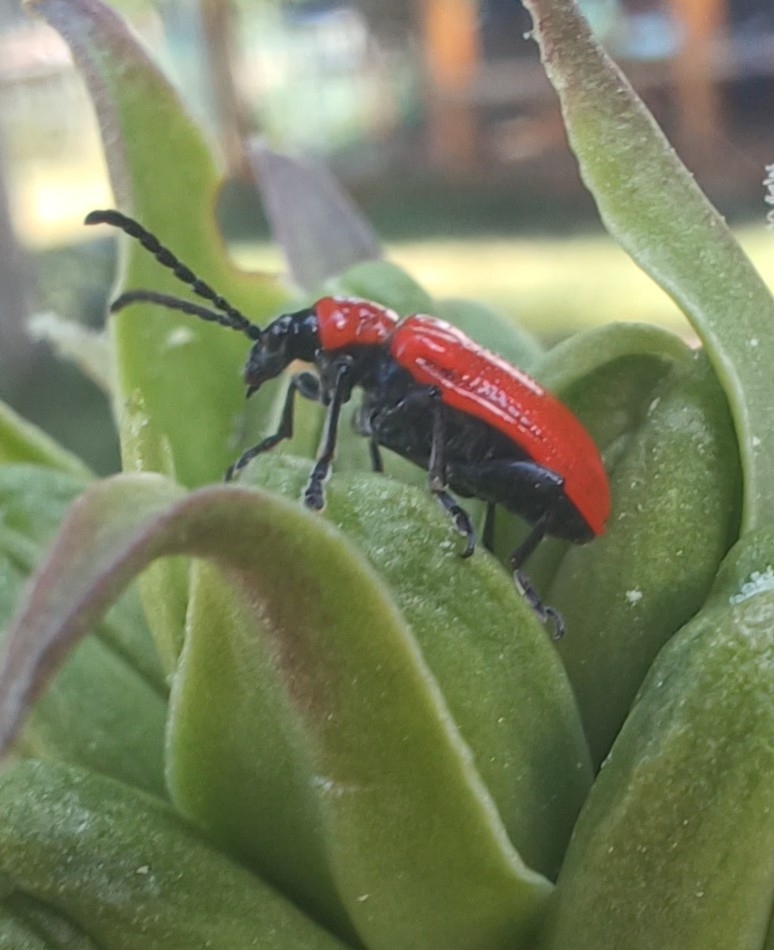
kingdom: Animalia
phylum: Arthropoda
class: Insecta
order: Coleoptera
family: Chrysomelidae
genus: Lilioceris
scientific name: Lilioceris lilii
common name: Lily beetle
